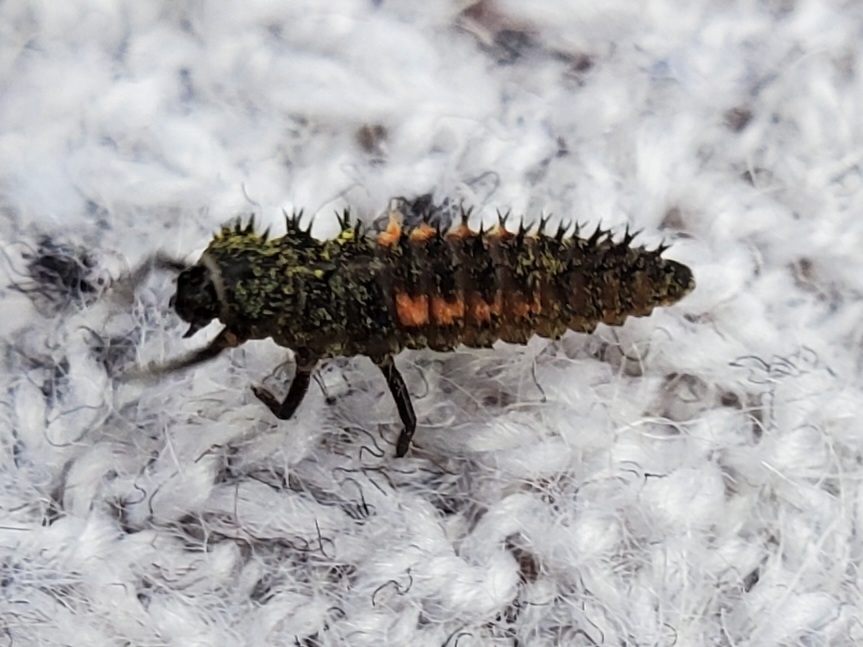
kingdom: Animalia
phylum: Arthropoda
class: Insecta
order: Coleoptera
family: Coccinellidae
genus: Harmonia
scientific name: Harmonia axyridis
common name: Harlequin ladybird
